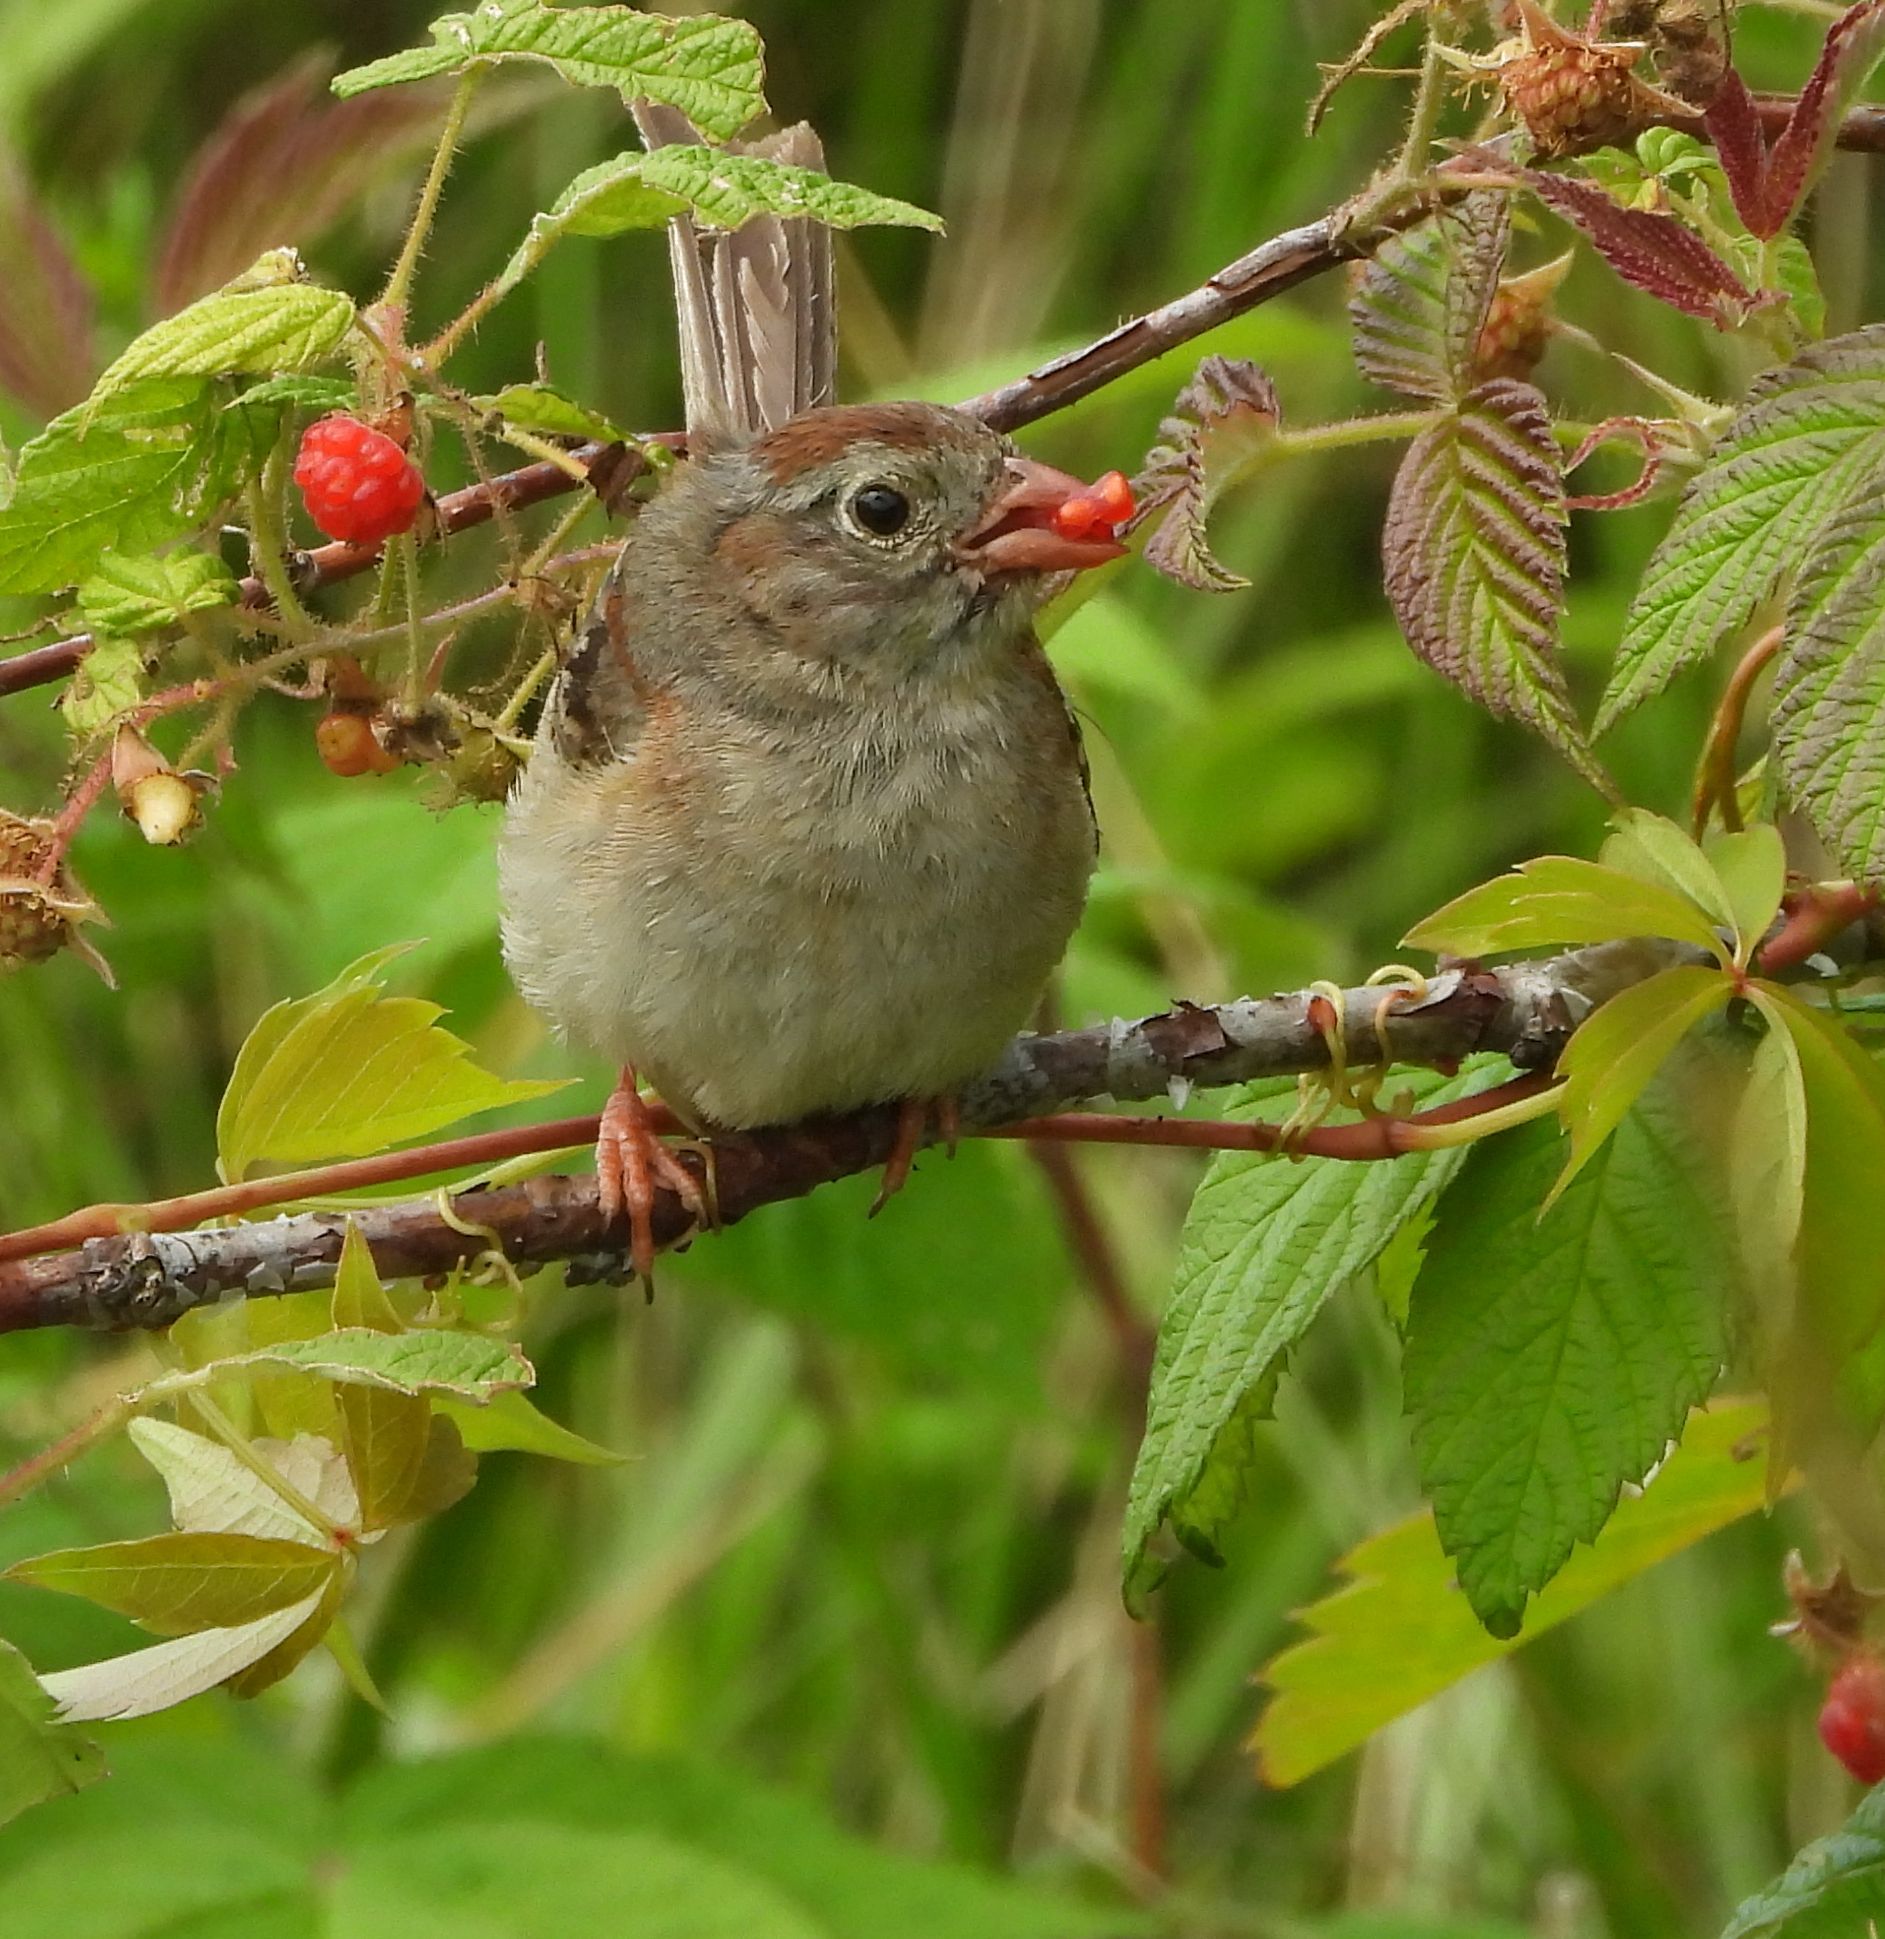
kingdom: Animalia
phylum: Chordata
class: Aves
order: Passeriformes
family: Passerellidae
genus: Spizella
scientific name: Spizella pusilla
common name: Field sparrow
